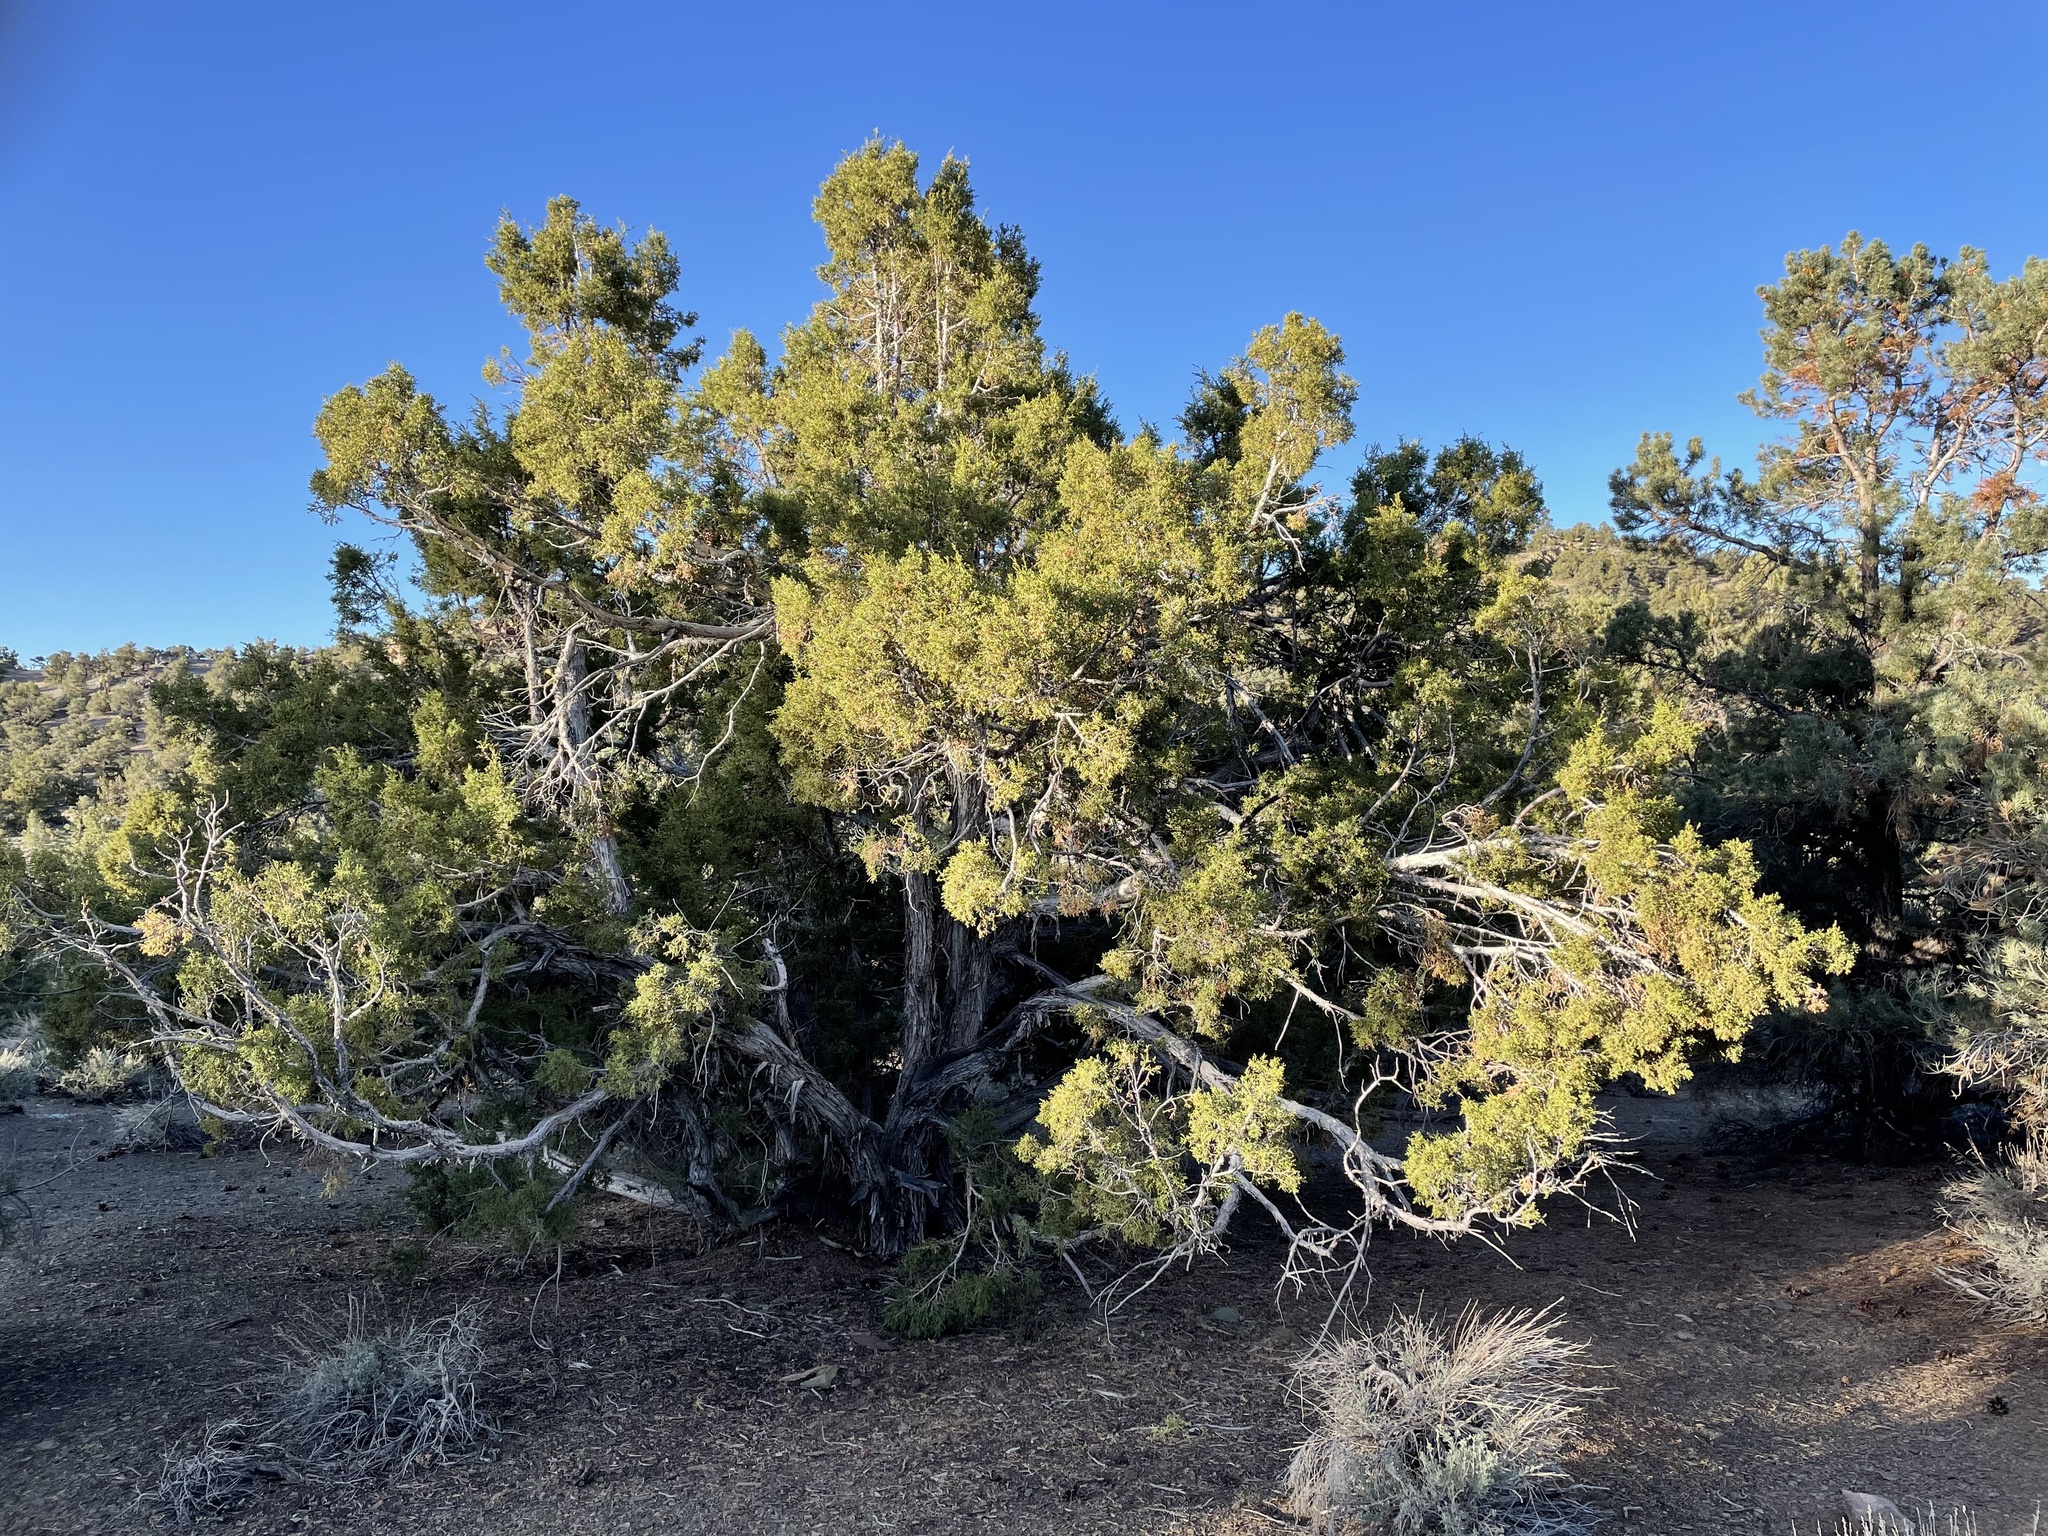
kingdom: Plantae
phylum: Tracheophyta
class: Pinopsida
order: Pinales
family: Cupressaceae
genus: Juniperus
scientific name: Juniperus osteosperma
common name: Utah juniper
